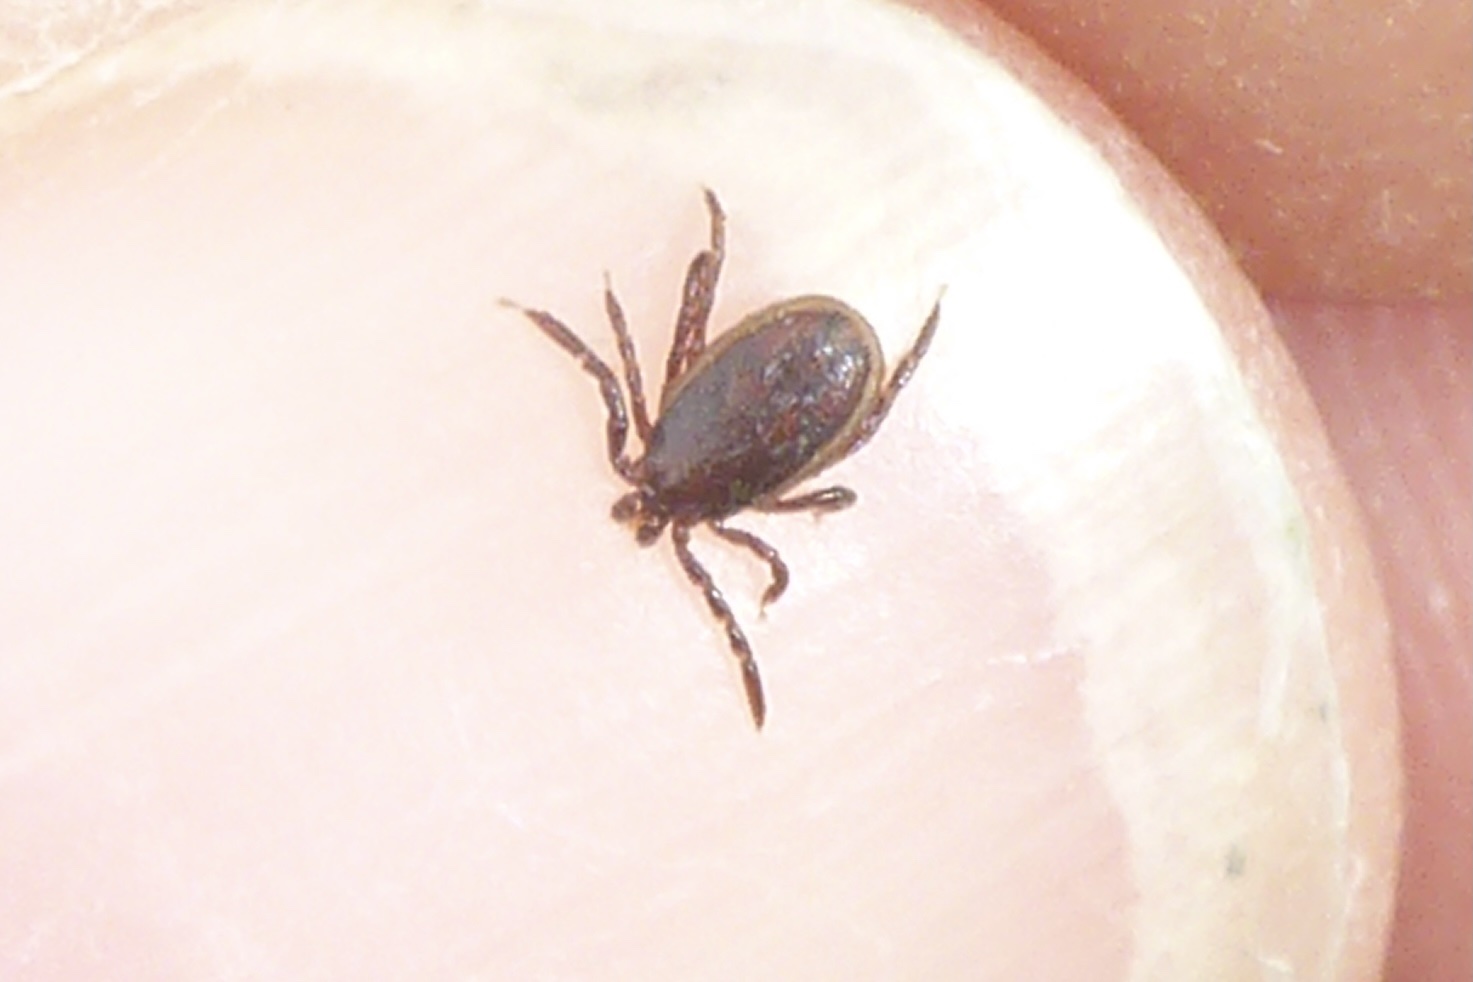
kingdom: Animalia
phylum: Arthropoda
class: Arachnida
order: Ixodida
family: Ixodidae
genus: Ixodes
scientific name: Ixodes pacificus
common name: California black-legged tick
